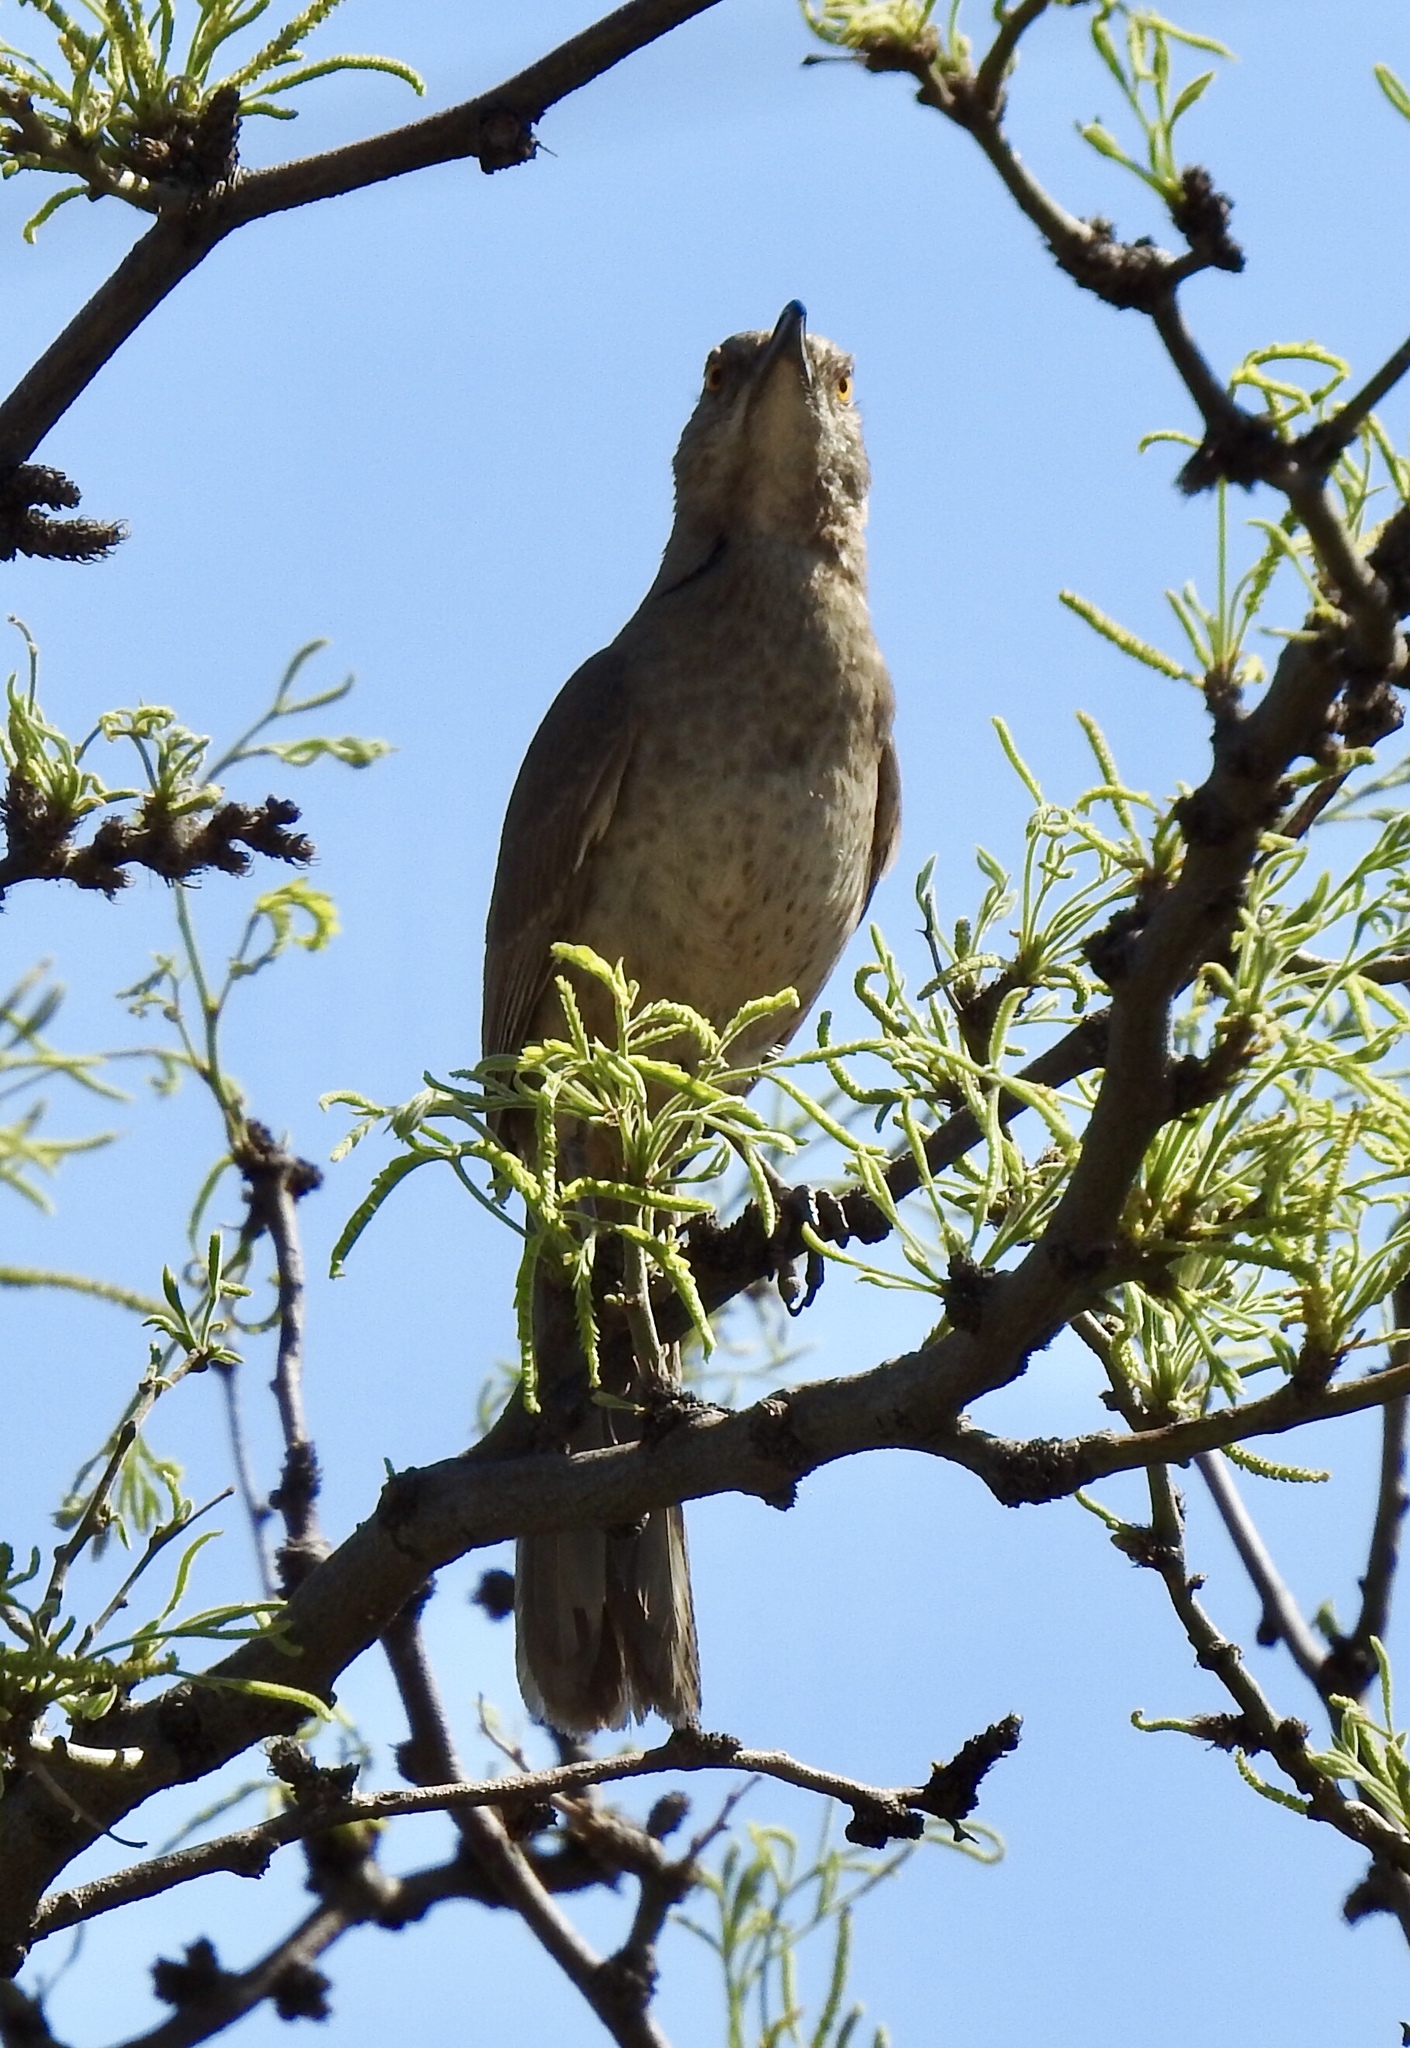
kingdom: Animalia
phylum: Chordata
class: Aves
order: Passeriformes
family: Mimidae
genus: Toxostoma
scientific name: Toxostoma curvirostre
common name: Curve-billed thrasher
